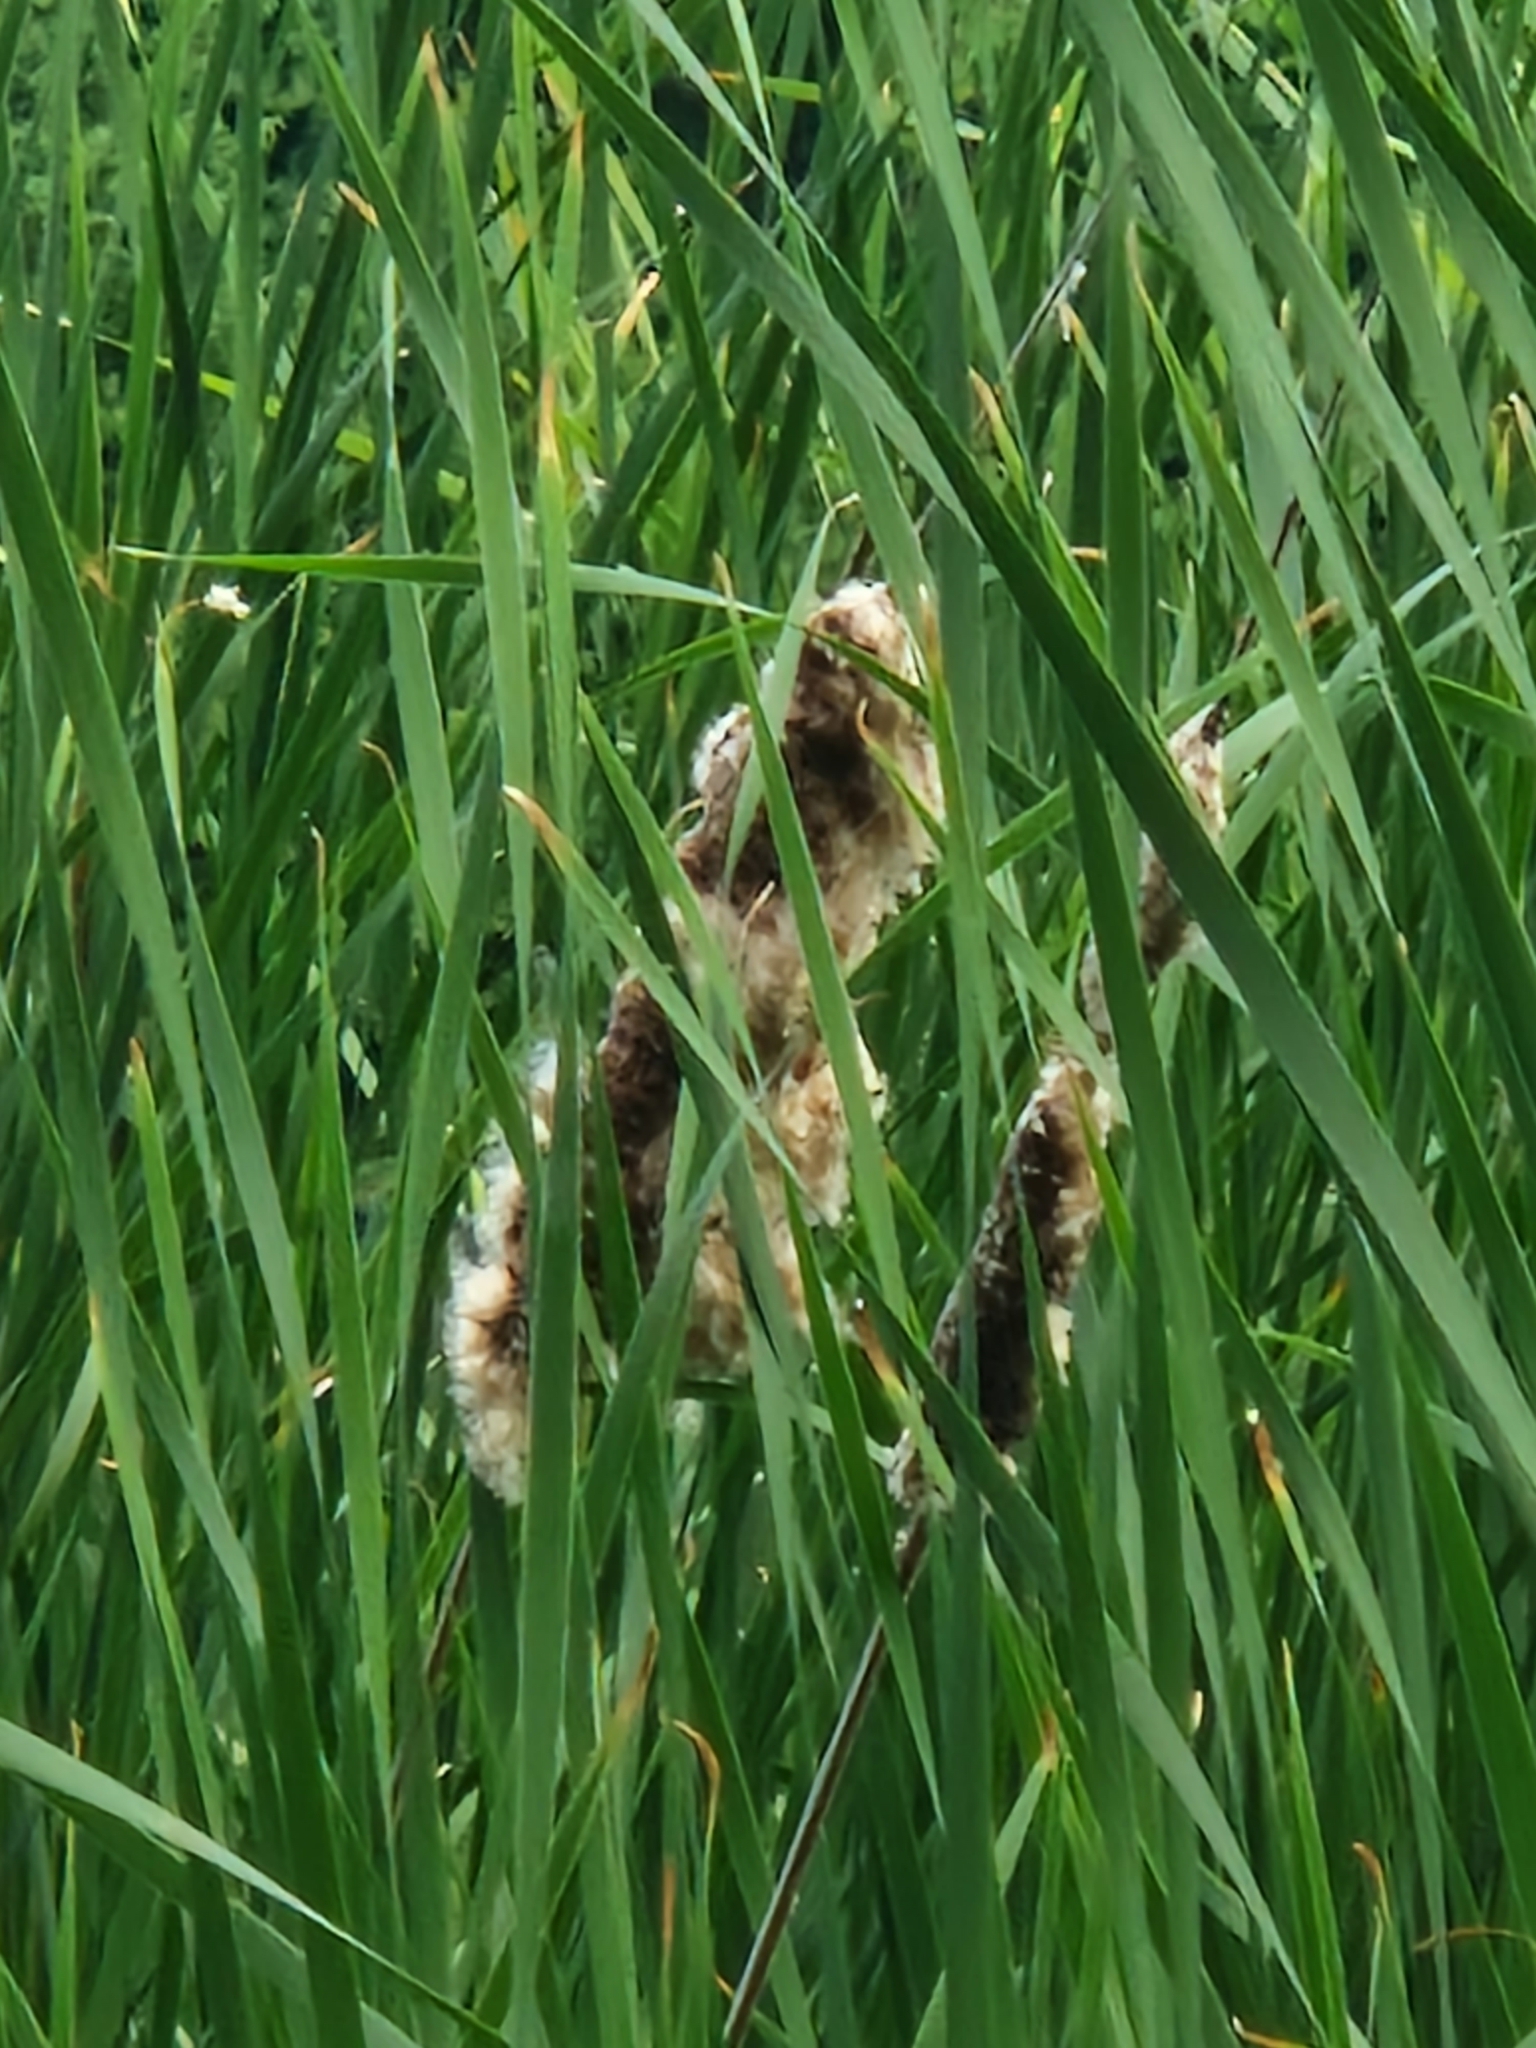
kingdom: Plantae
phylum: Tracheophyta
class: Liliopsida
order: Poales
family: Typhaceae
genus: Typha
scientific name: Typha latifolia
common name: Broadleaf cattail
